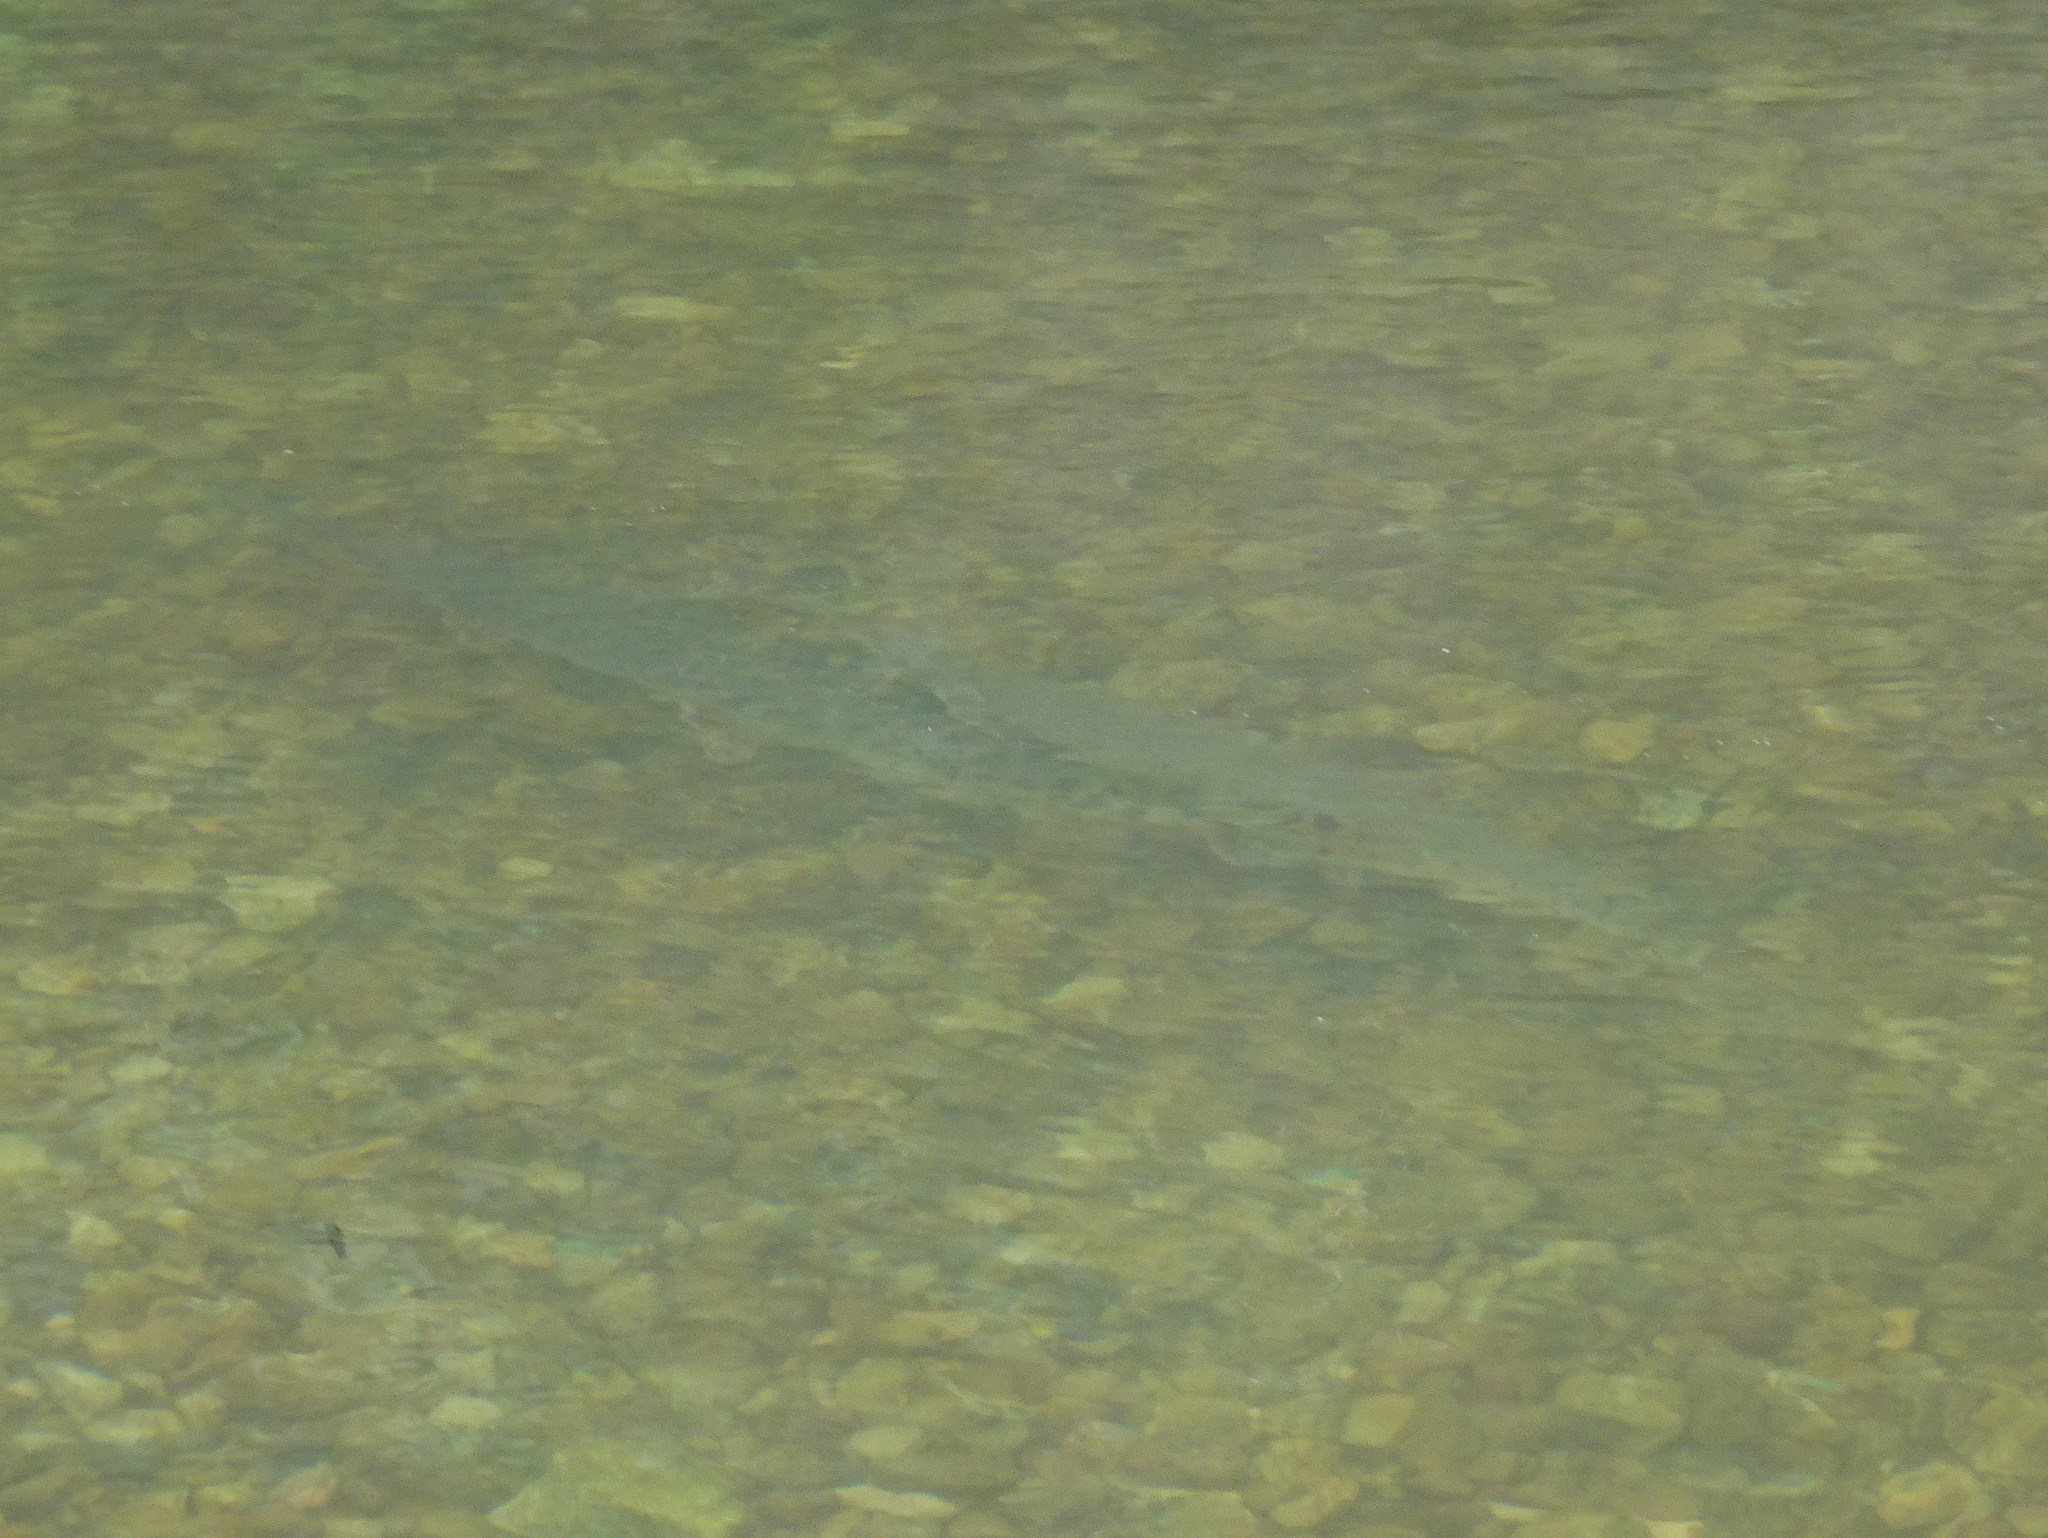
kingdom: Animalia
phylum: Chordata
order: Lepisosteiformes
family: Lepisosteidae
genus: Lepisosteus
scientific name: Lepisosteus osseus
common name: Longnose gar
